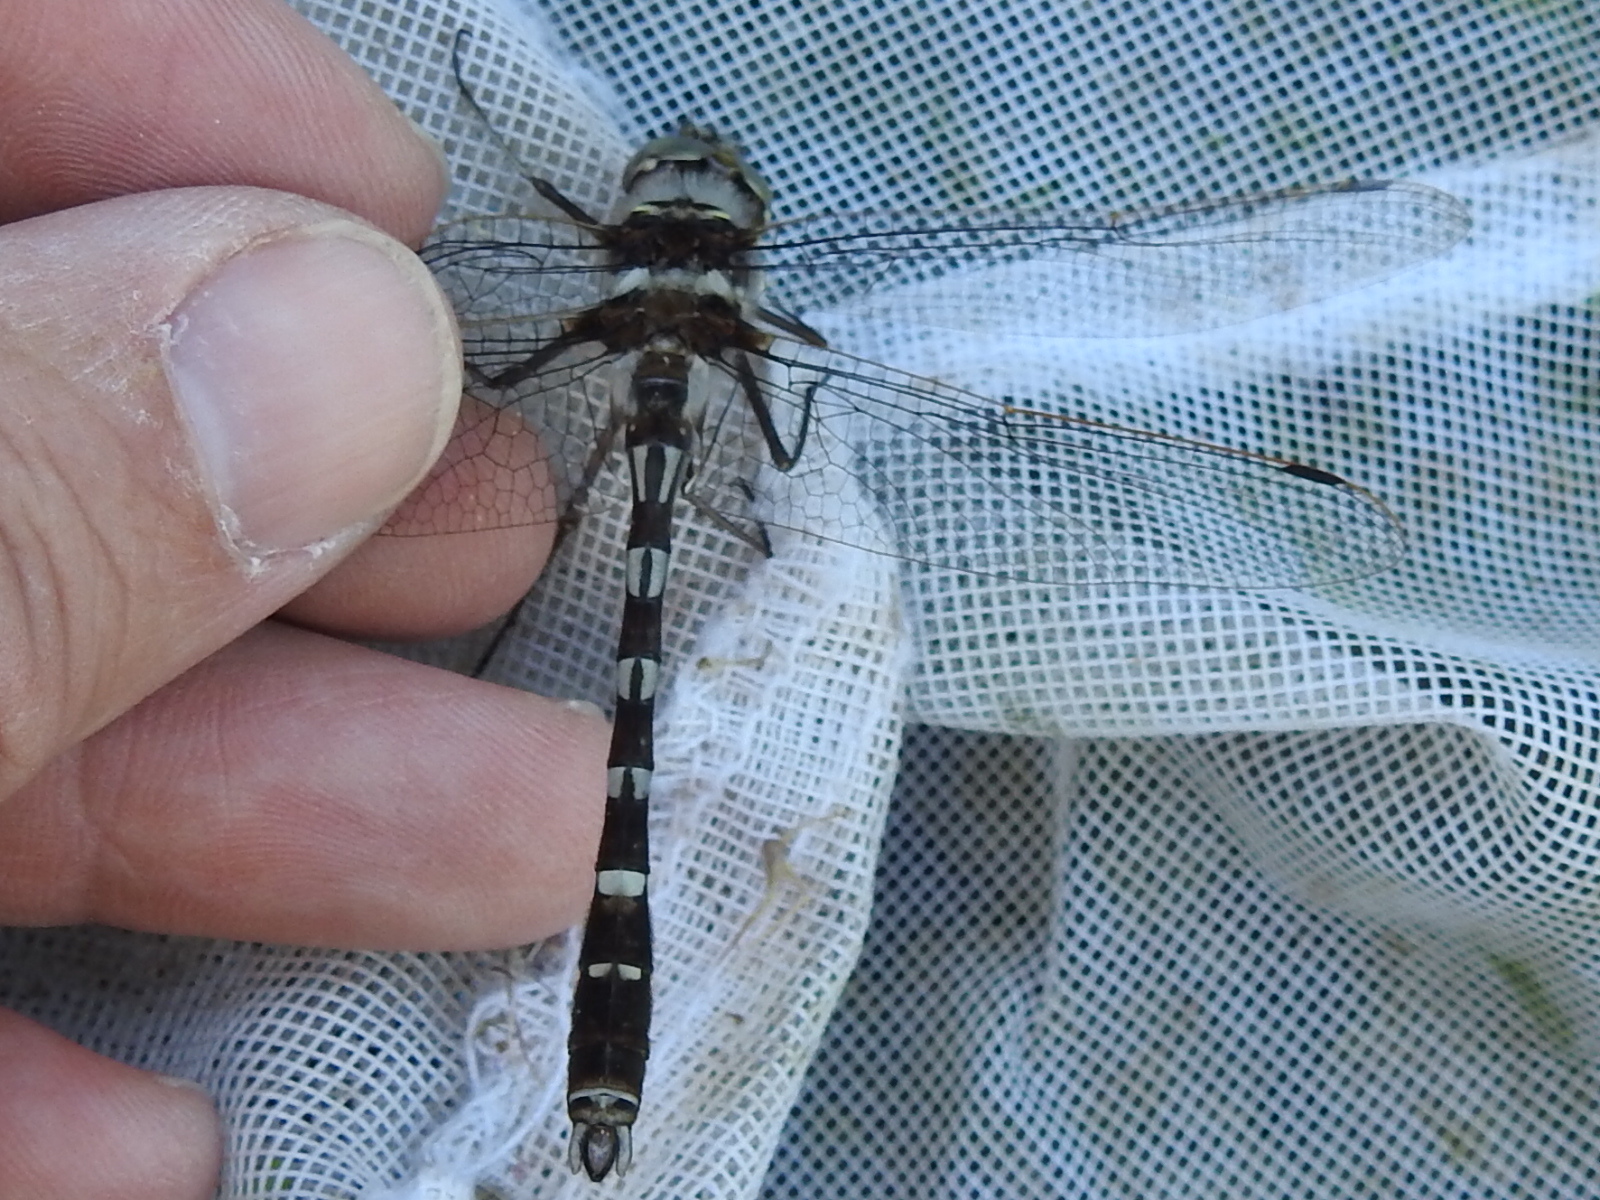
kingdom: Animalia
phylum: Arthropoda
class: Insecta
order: Odonata
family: Macromiidae
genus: Didymops
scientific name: Didymops transversa
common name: Stream cruiser
